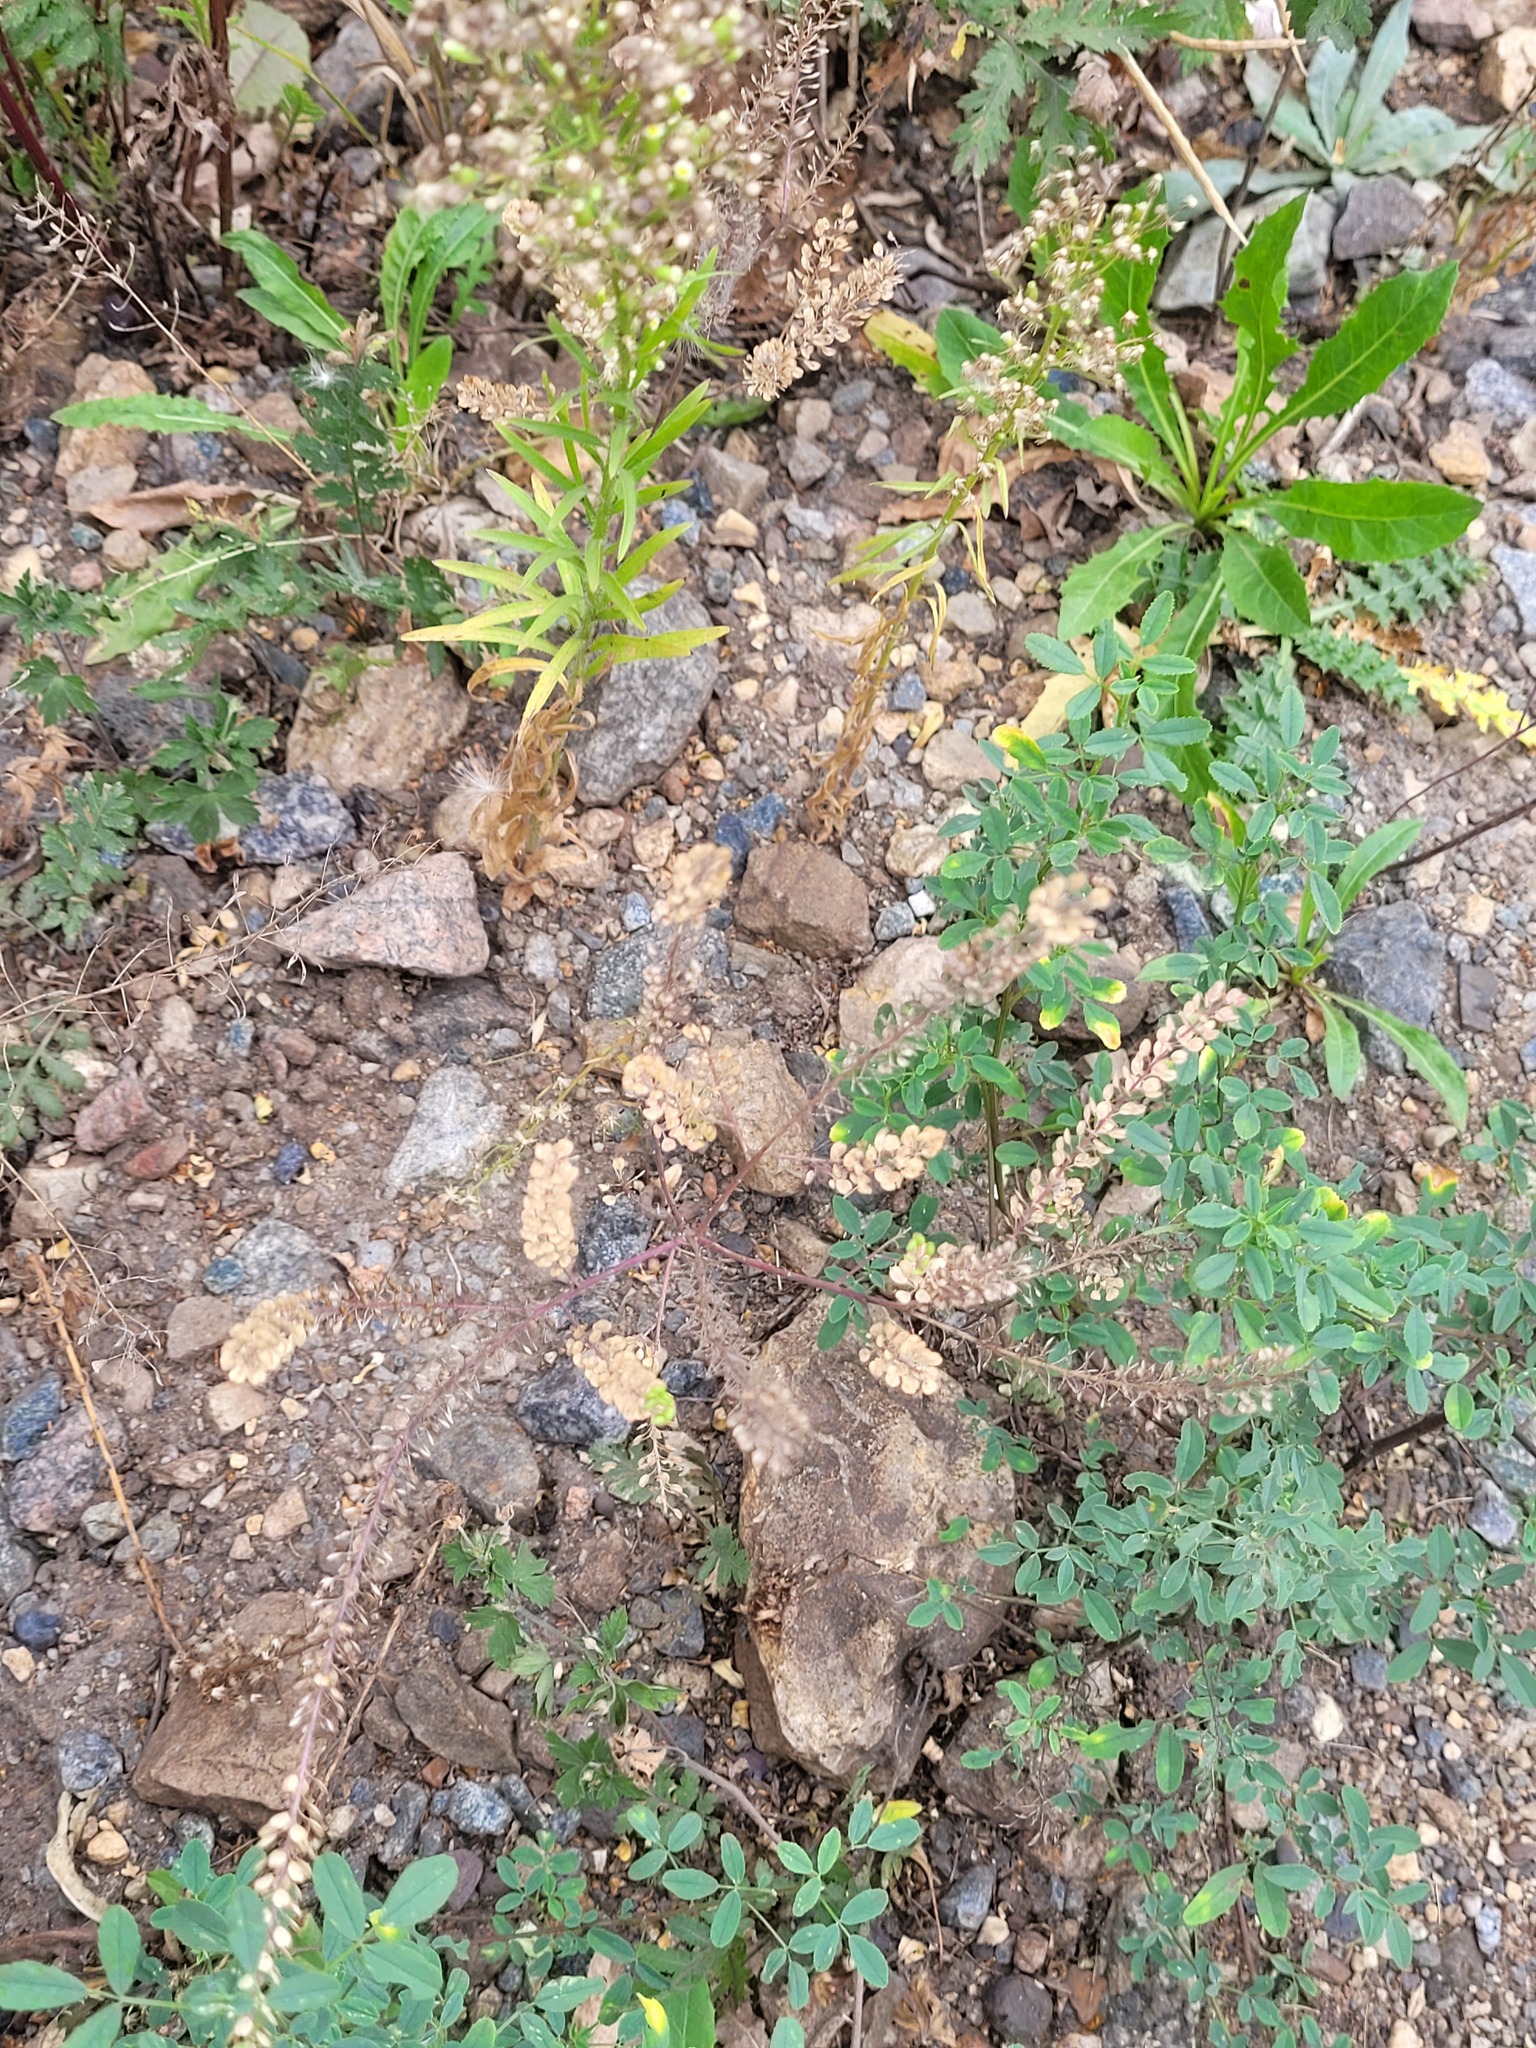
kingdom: Plantae
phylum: Tracheophyta
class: Magnoliopsida
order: Brassicales
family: Brassicaceae
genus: Lepidium
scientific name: Lepidium densiflorum
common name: Miner's pepperwort
